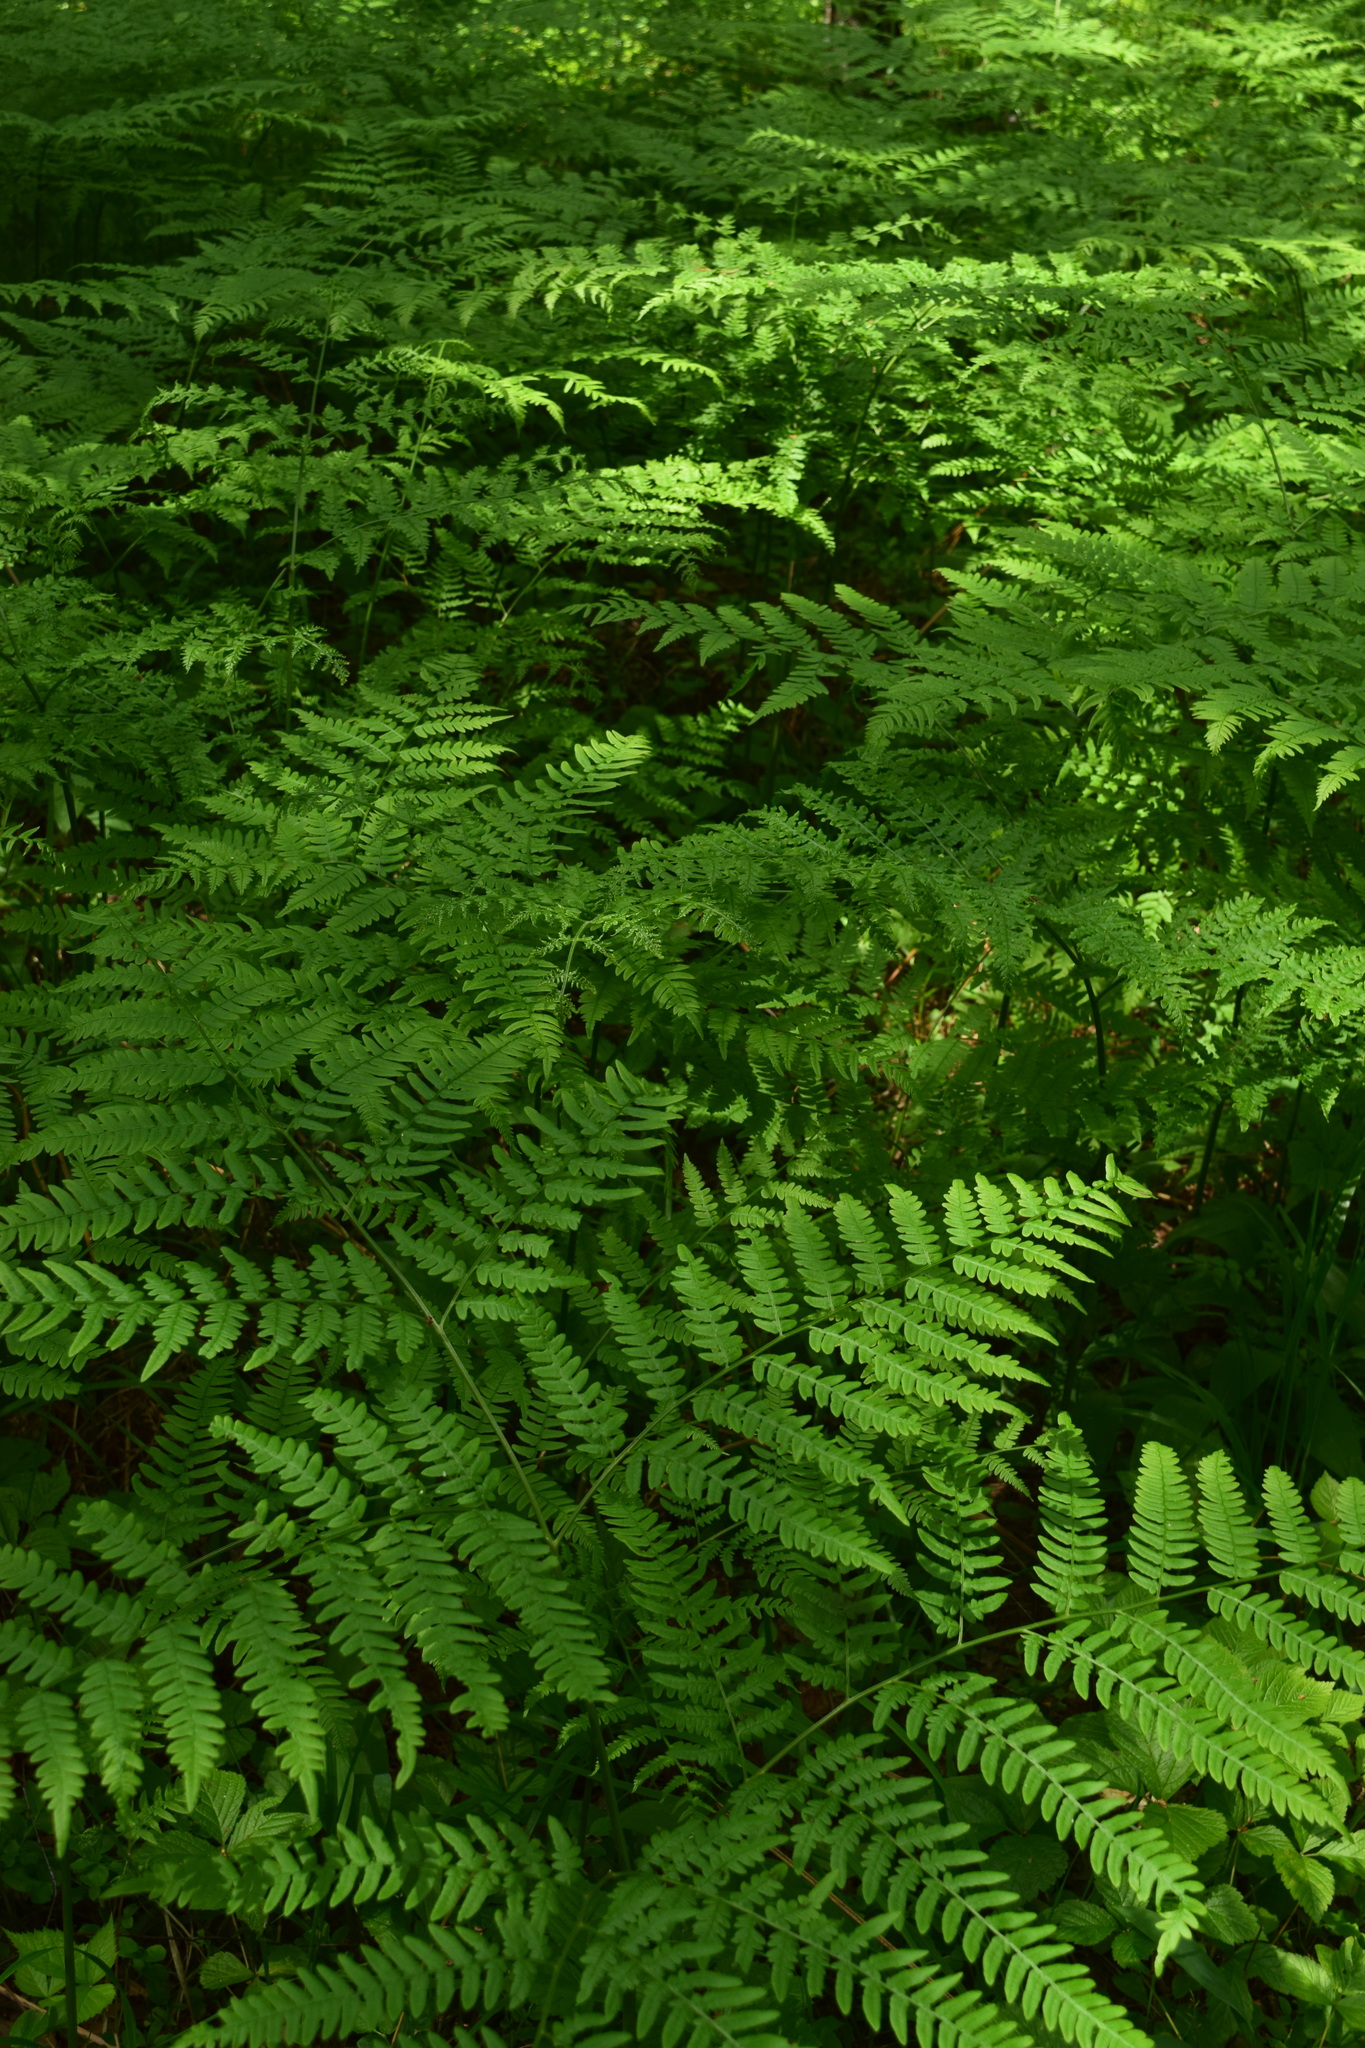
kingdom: Plantae
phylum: Tracheophyta
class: Polypodiopsida
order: Polypodiales
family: Dennstaedtiaceae
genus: Pteridium
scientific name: Pteridium aquilinum
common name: Bracken
